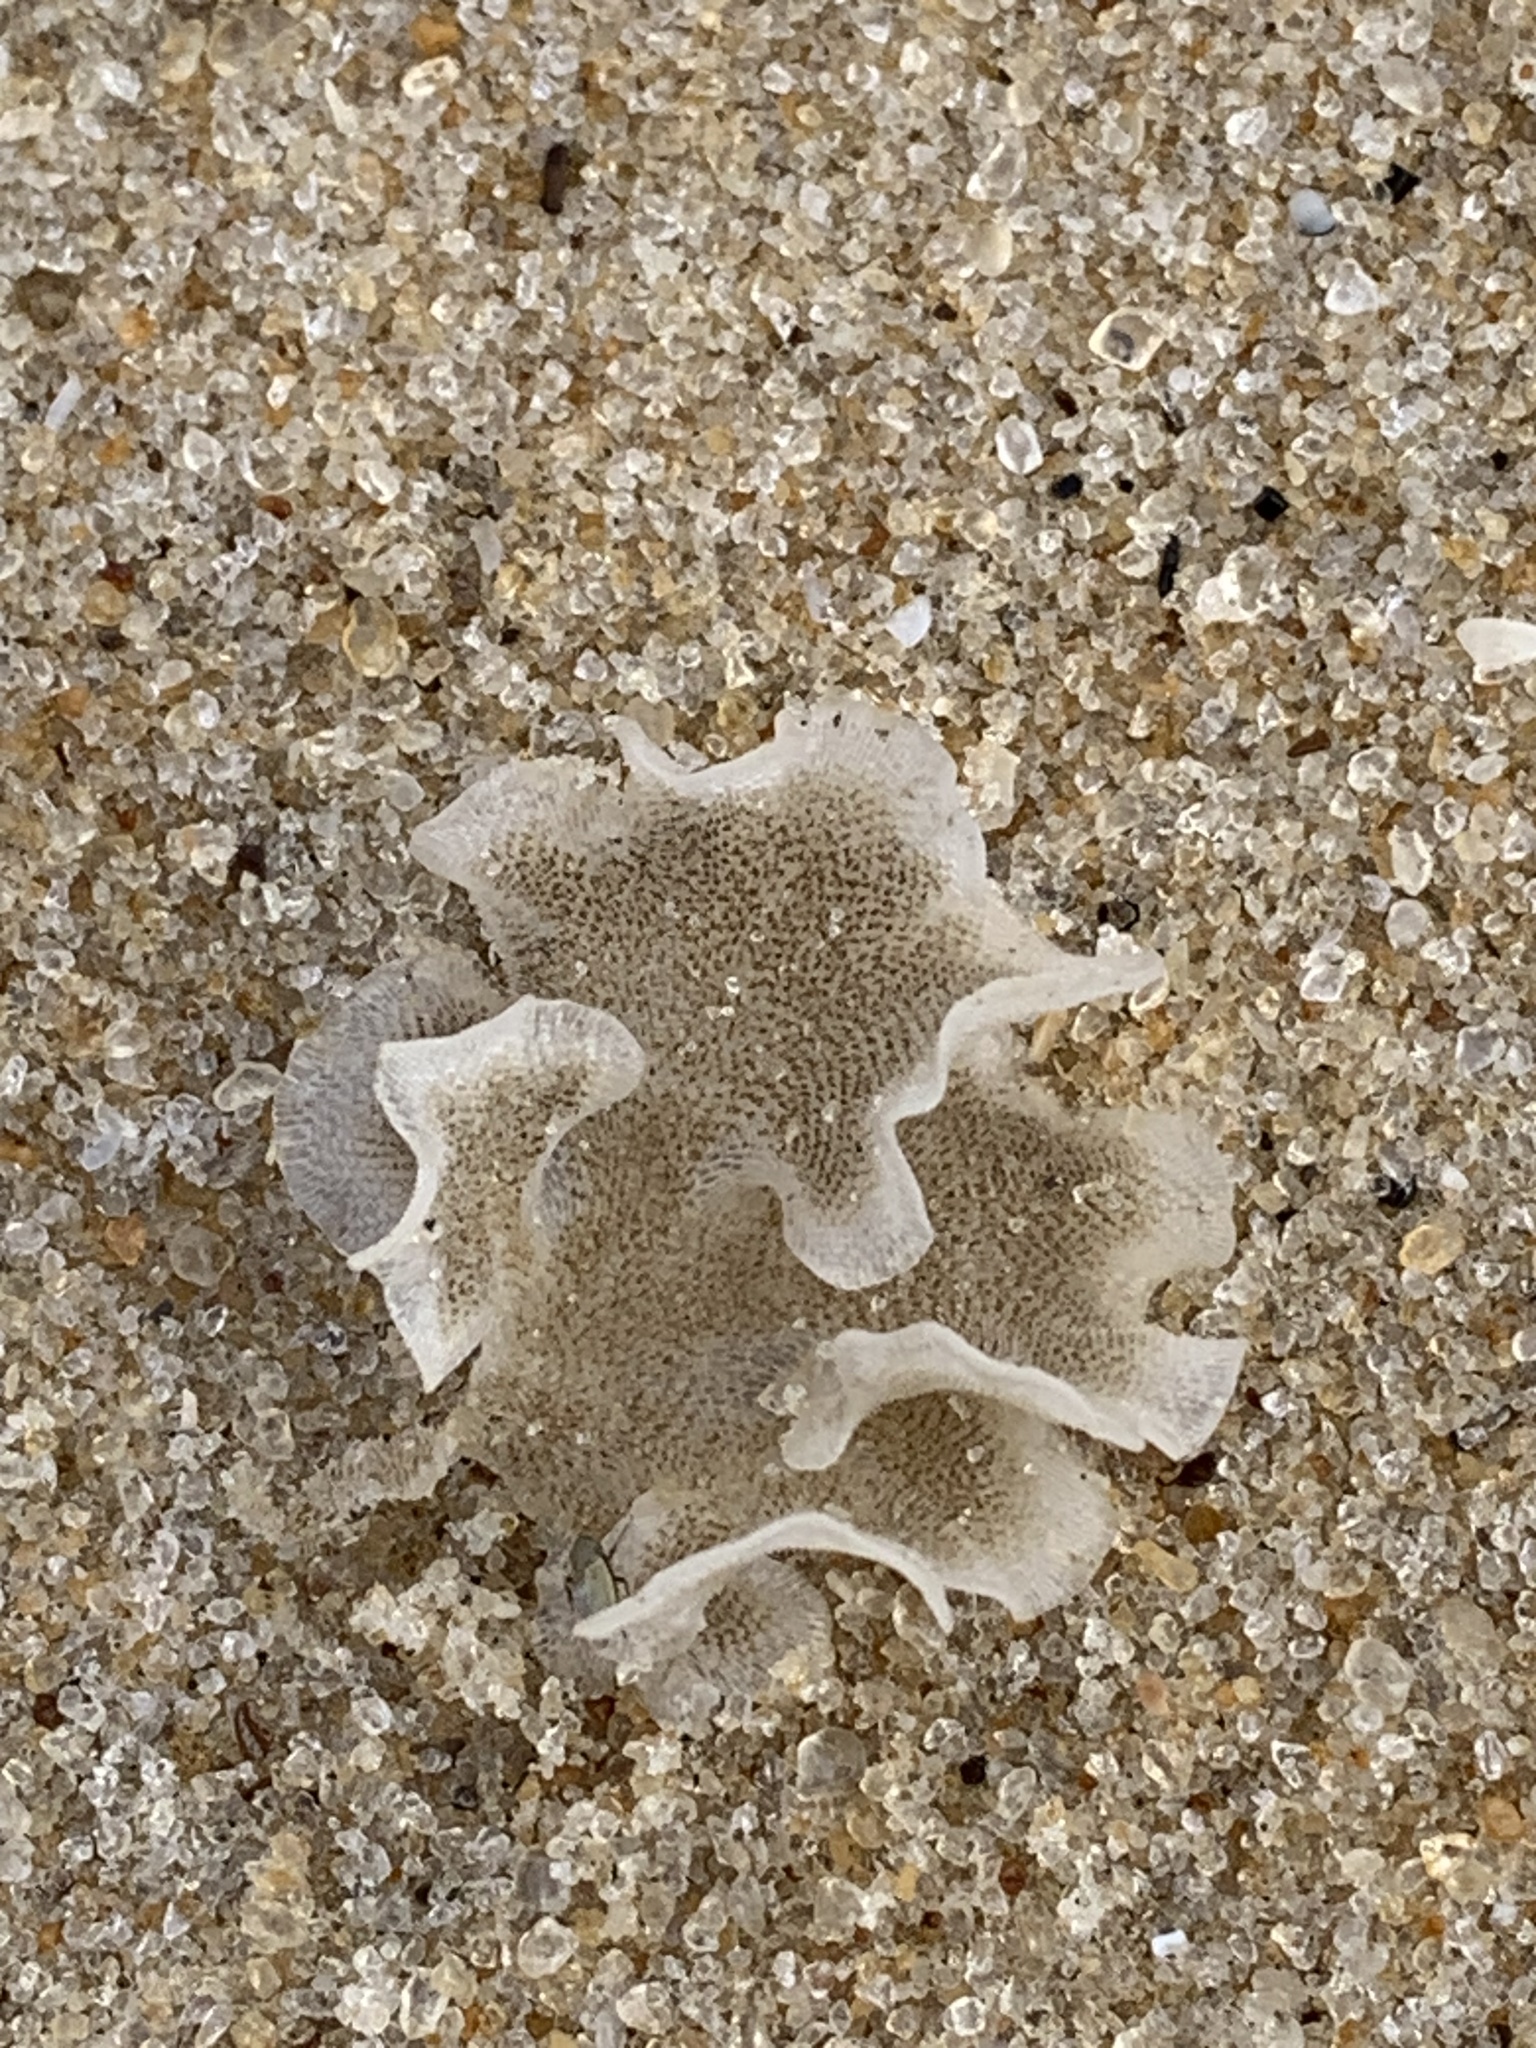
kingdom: Animalia
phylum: Bryozoa
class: Gymnolaemata
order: Cheilostomatida
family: Sinoflustridae
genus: Membraniporopsis
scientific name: Membraniporopsis tubigera
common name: Fouling bryozoan
